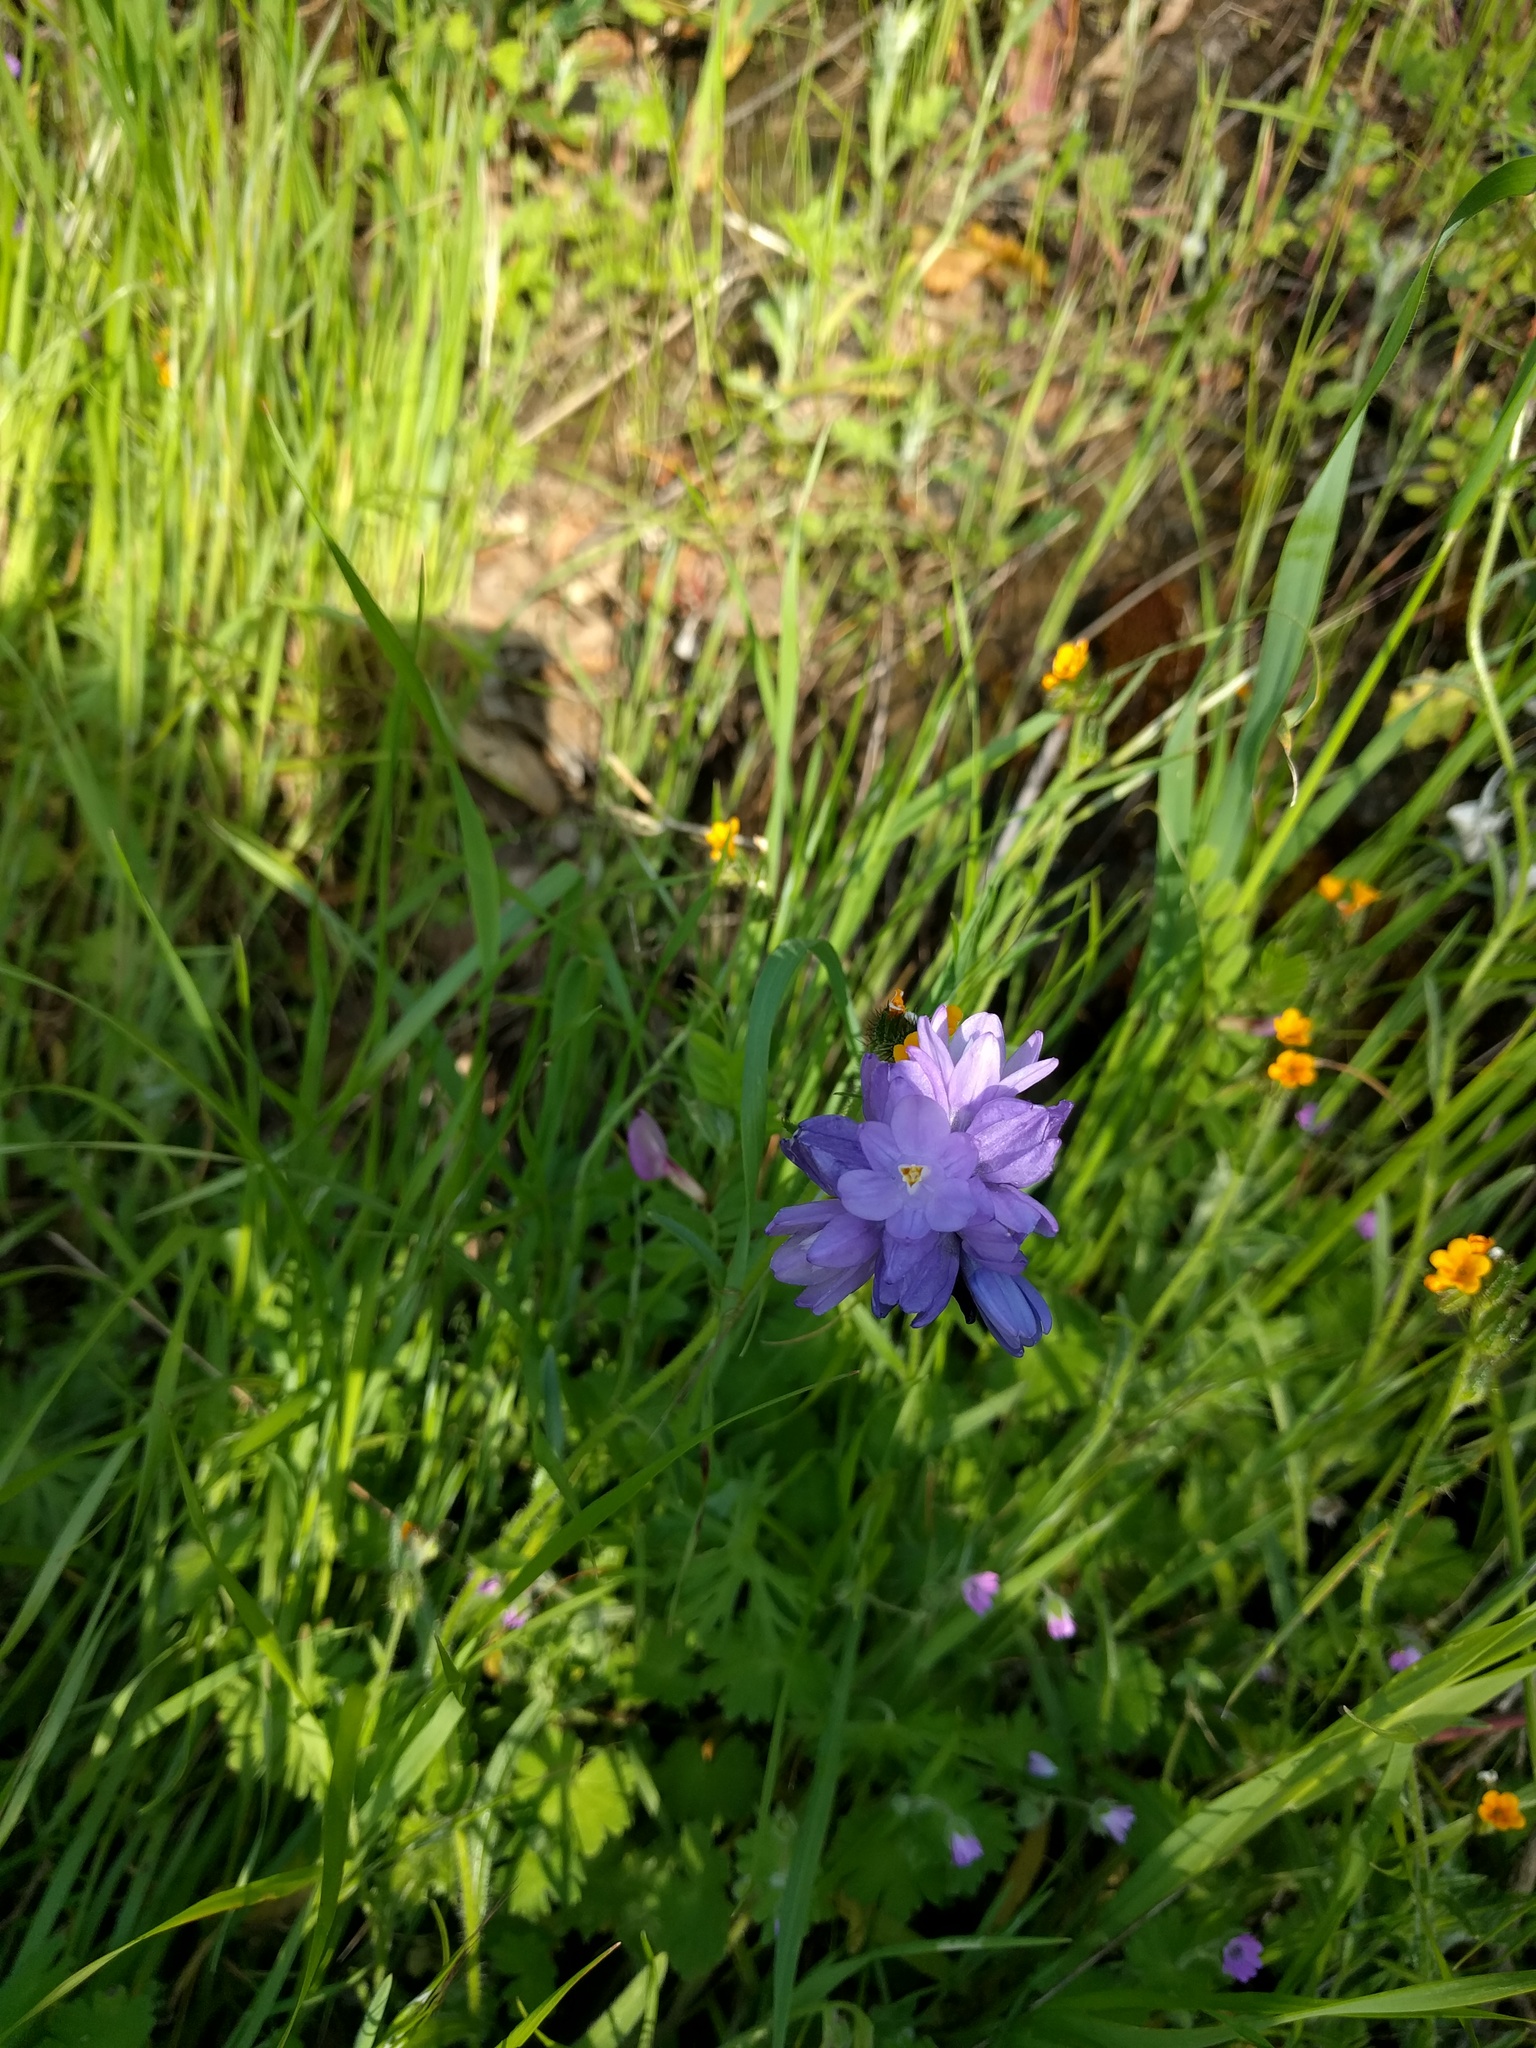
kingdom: Plantae
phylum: Tracheophyta
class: Liliopsida
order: Asparagales
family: Asparagaceae
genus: Dipterostemon
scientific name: Dipterostemon capitatus
